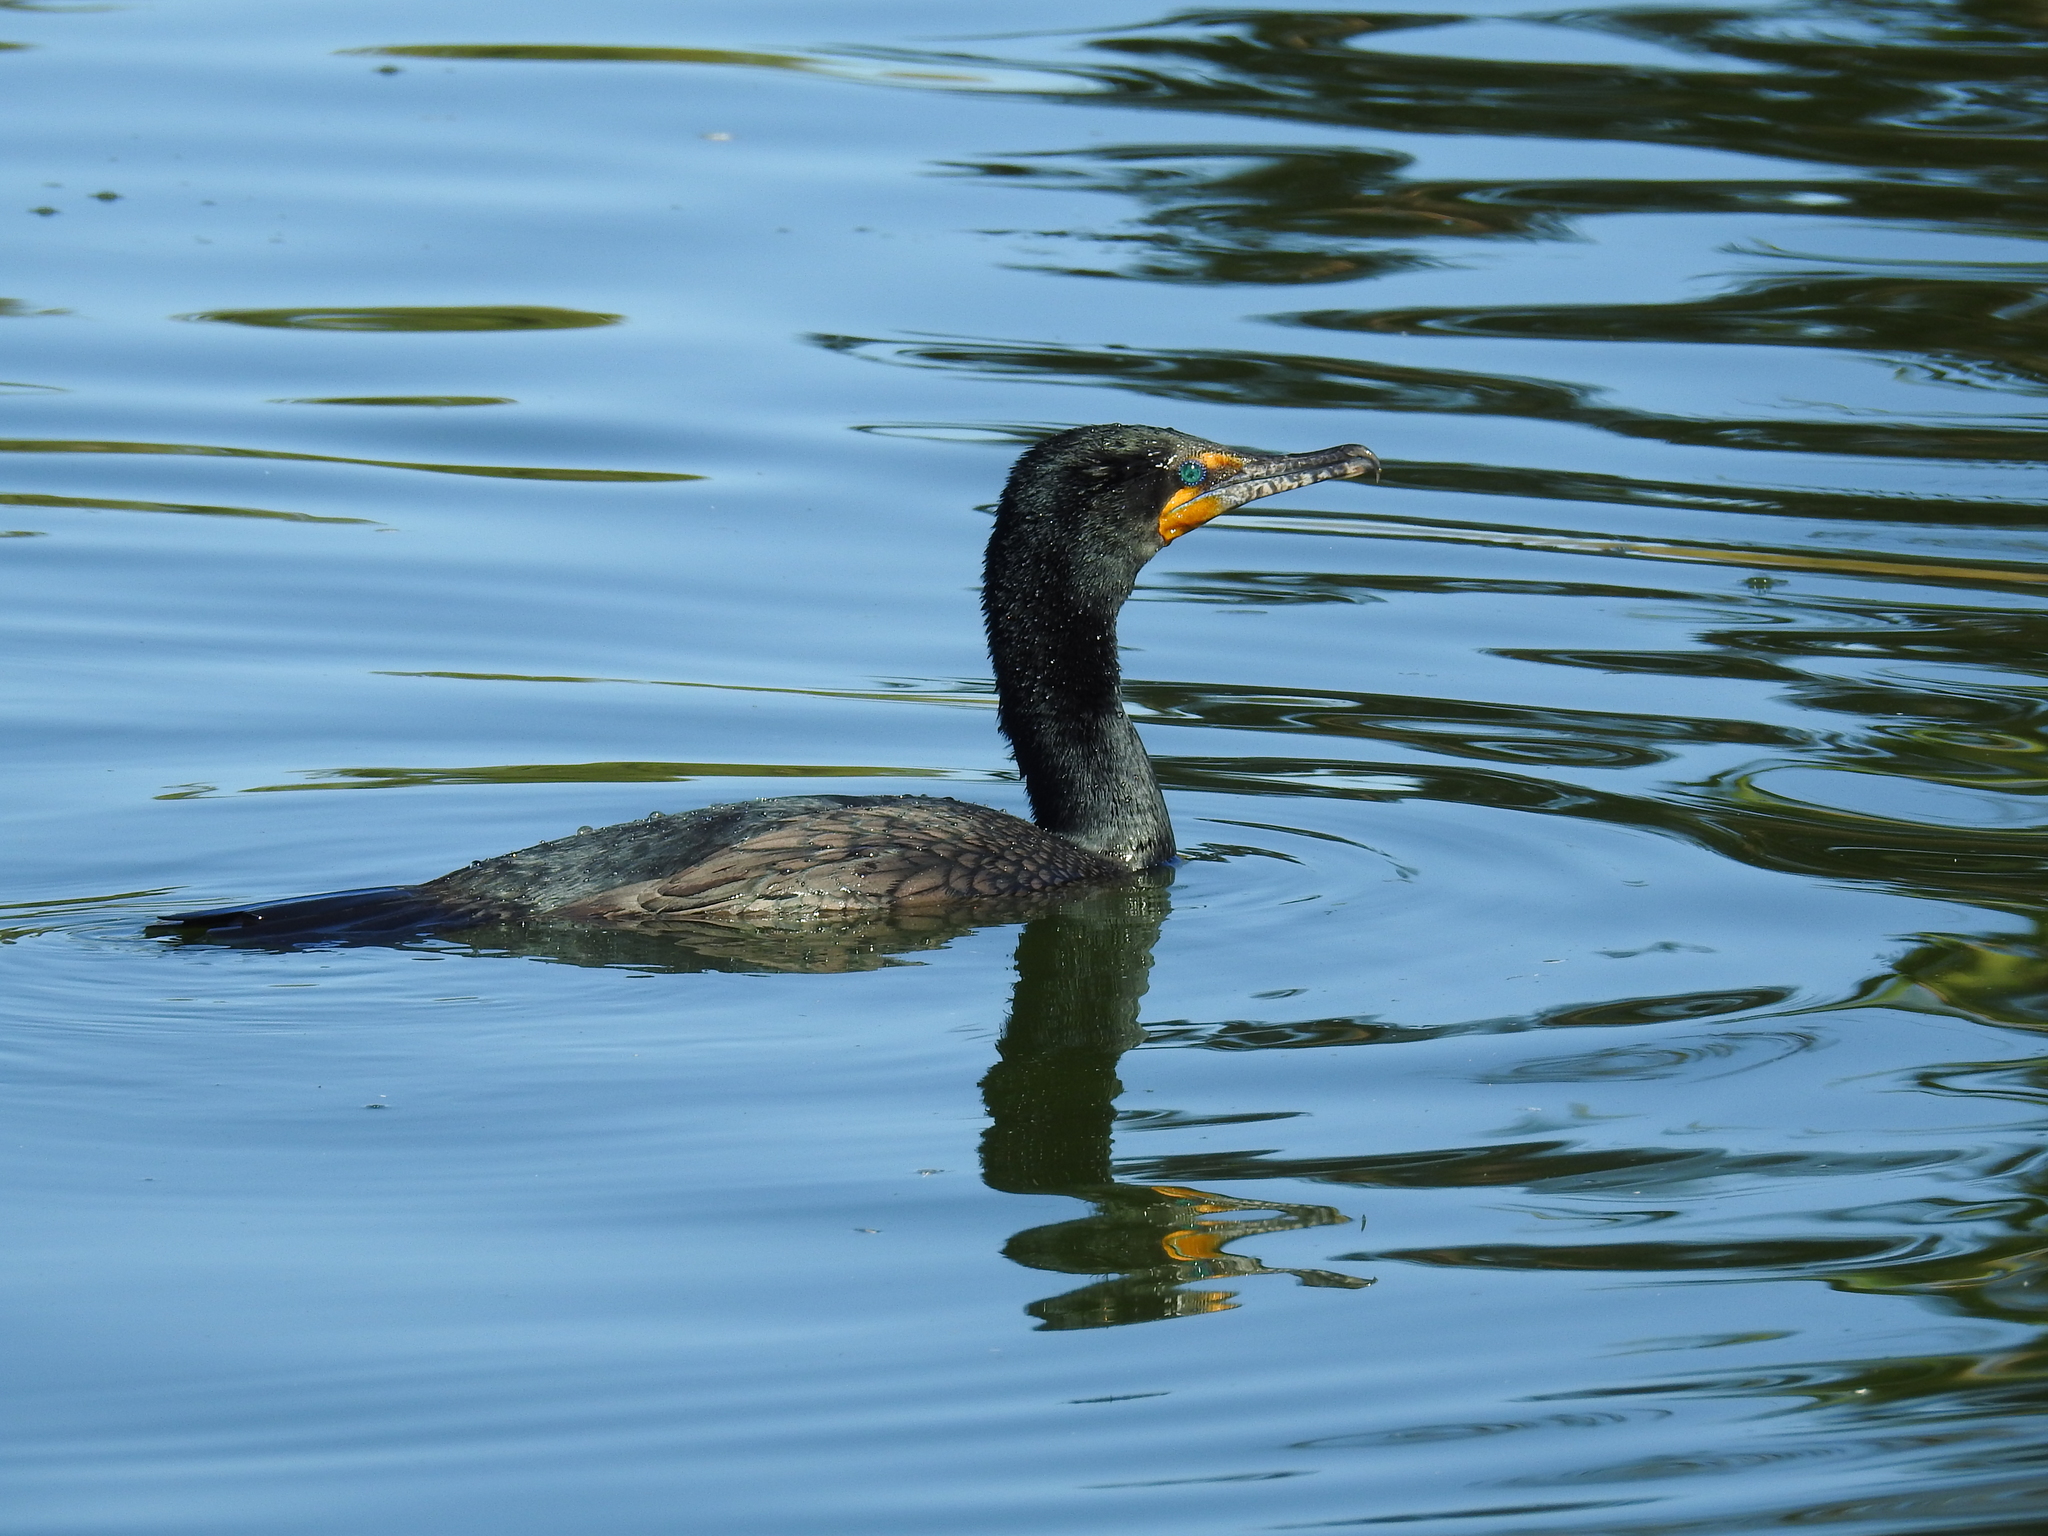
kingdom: Animalia
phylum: Chordata
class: Aves
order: Suliformes
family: Phalacrocoracidae
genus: Phalacrocorax
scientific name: Phalacrocorax auritus
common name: Double-crested cormorant
